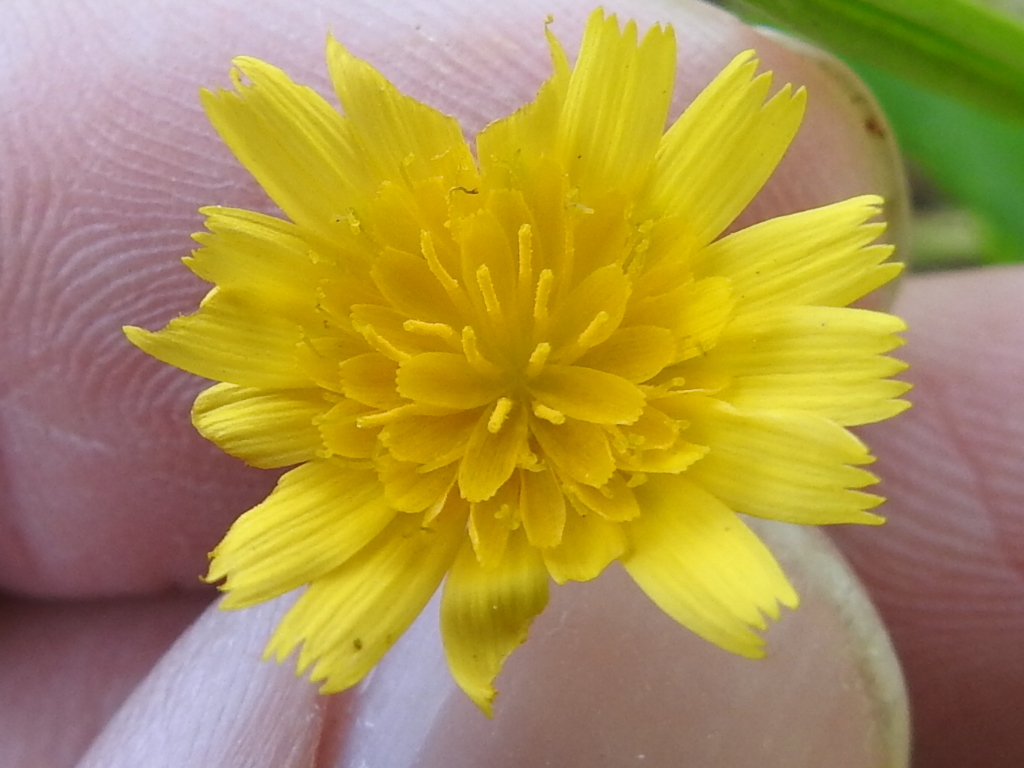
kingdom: Plantae
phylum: Tracheophyta
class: Magnoliopsida
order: Asterales
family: Asteraceae
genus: Krigia
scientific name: Krigia cespitosa
